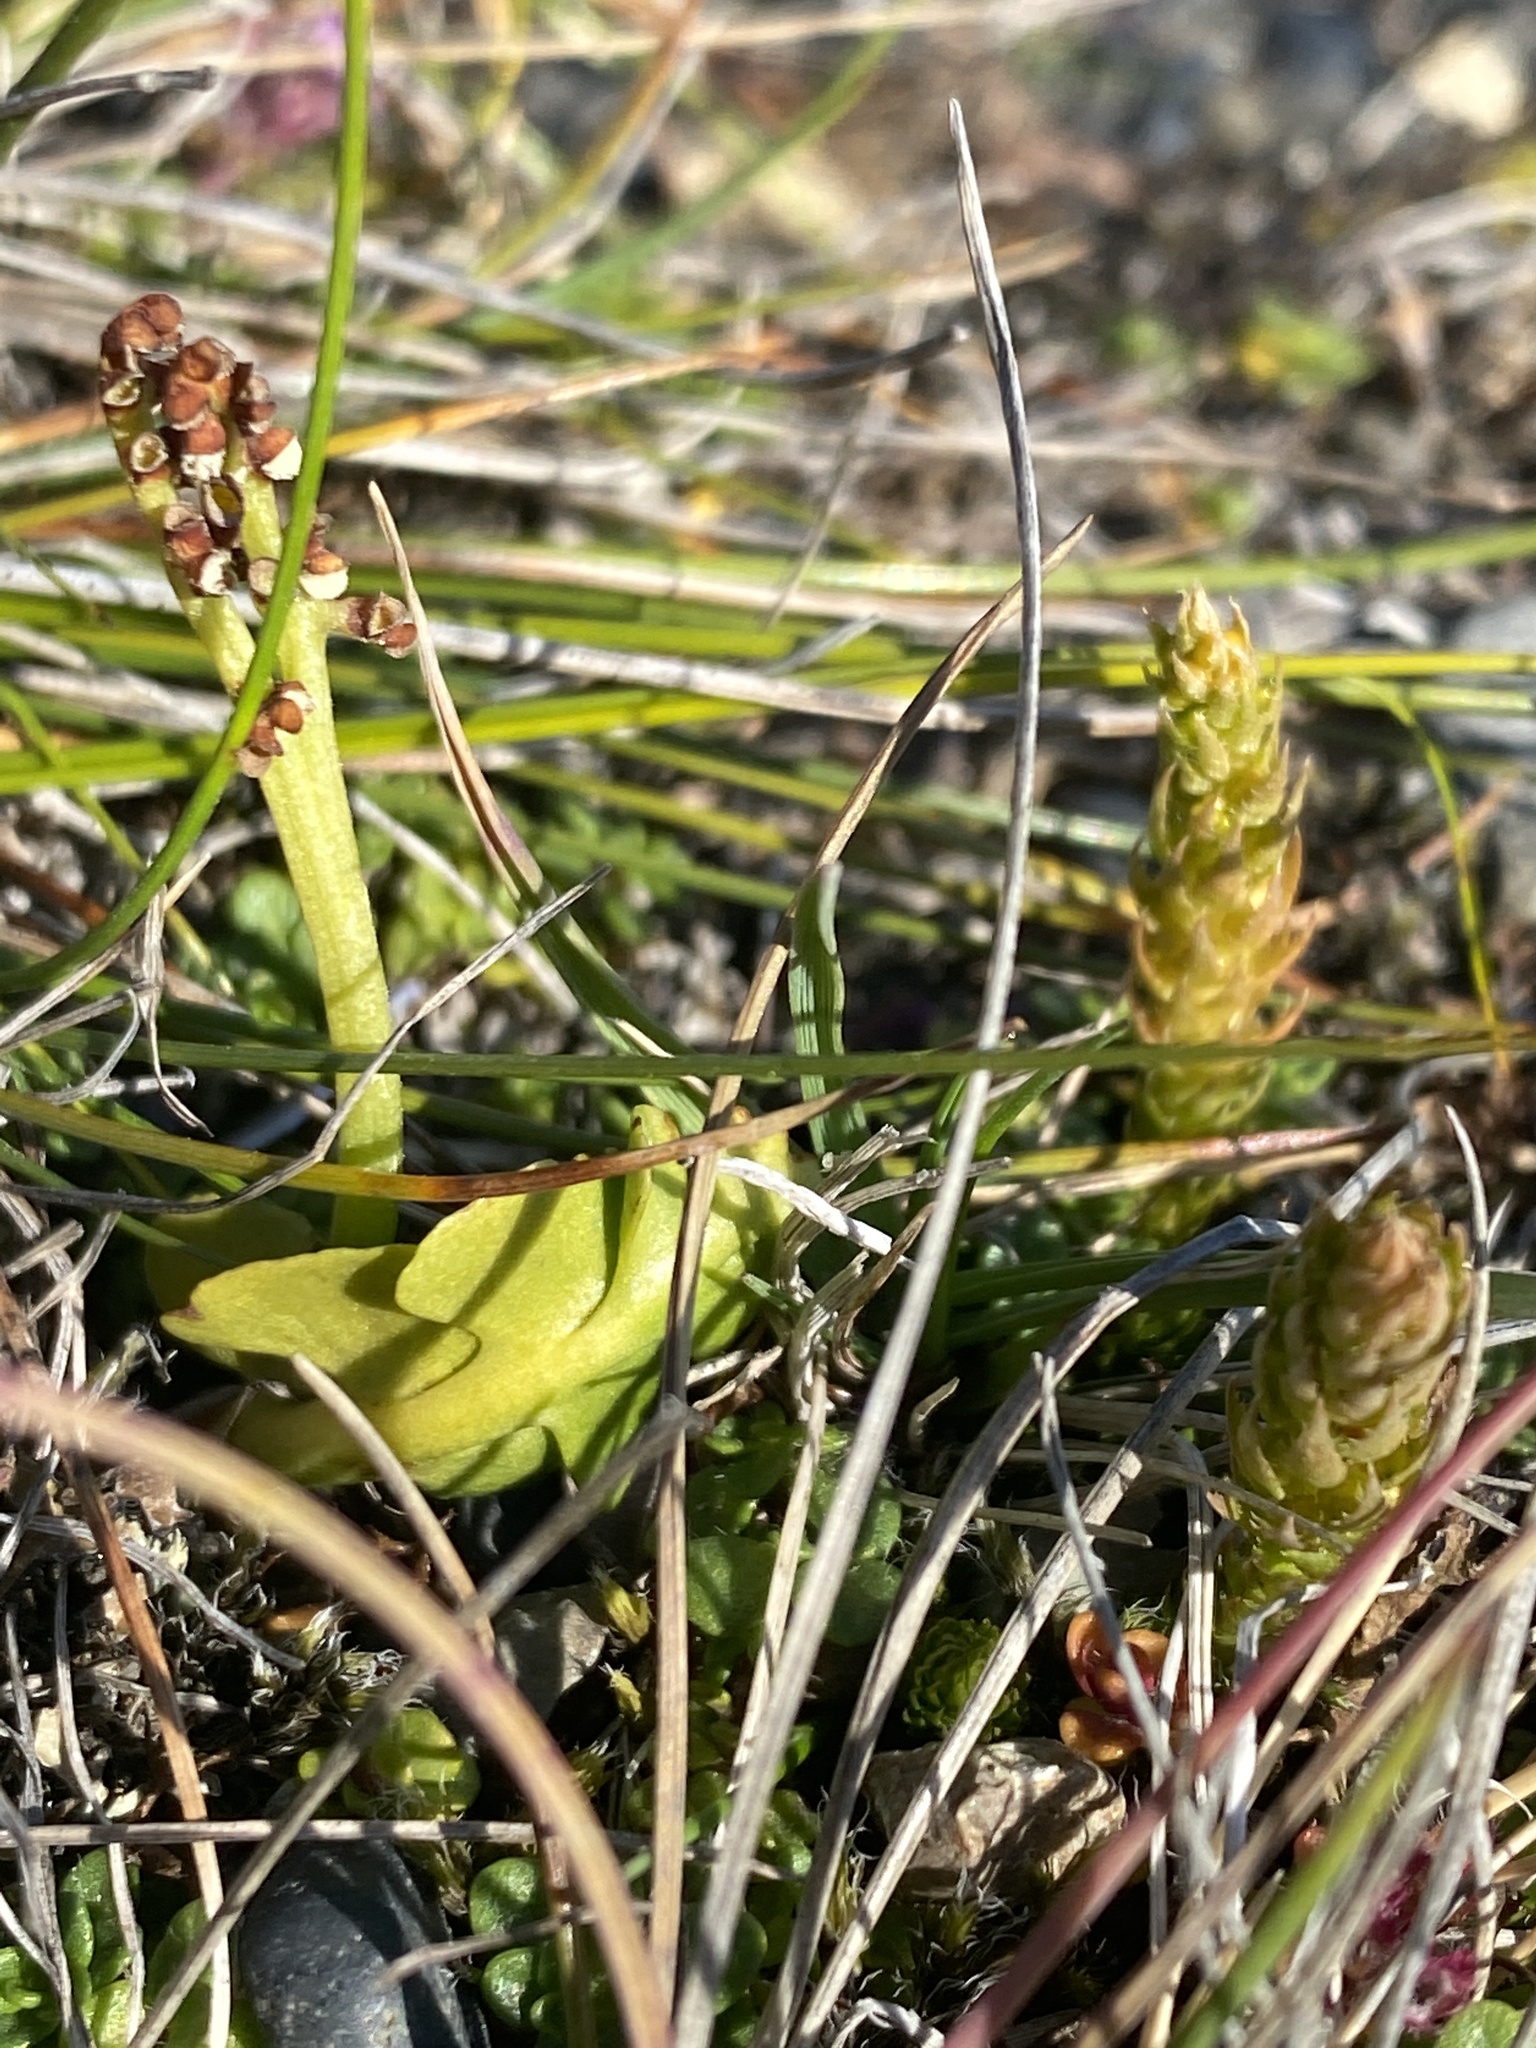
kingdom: Plantae
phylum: Tracheophyta
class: Lycopodiopsida
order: Selaginellales
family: Selaginellaceae
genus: Selaginella
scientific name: Selaginella selaginoides
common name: Prickly mountain-moss
